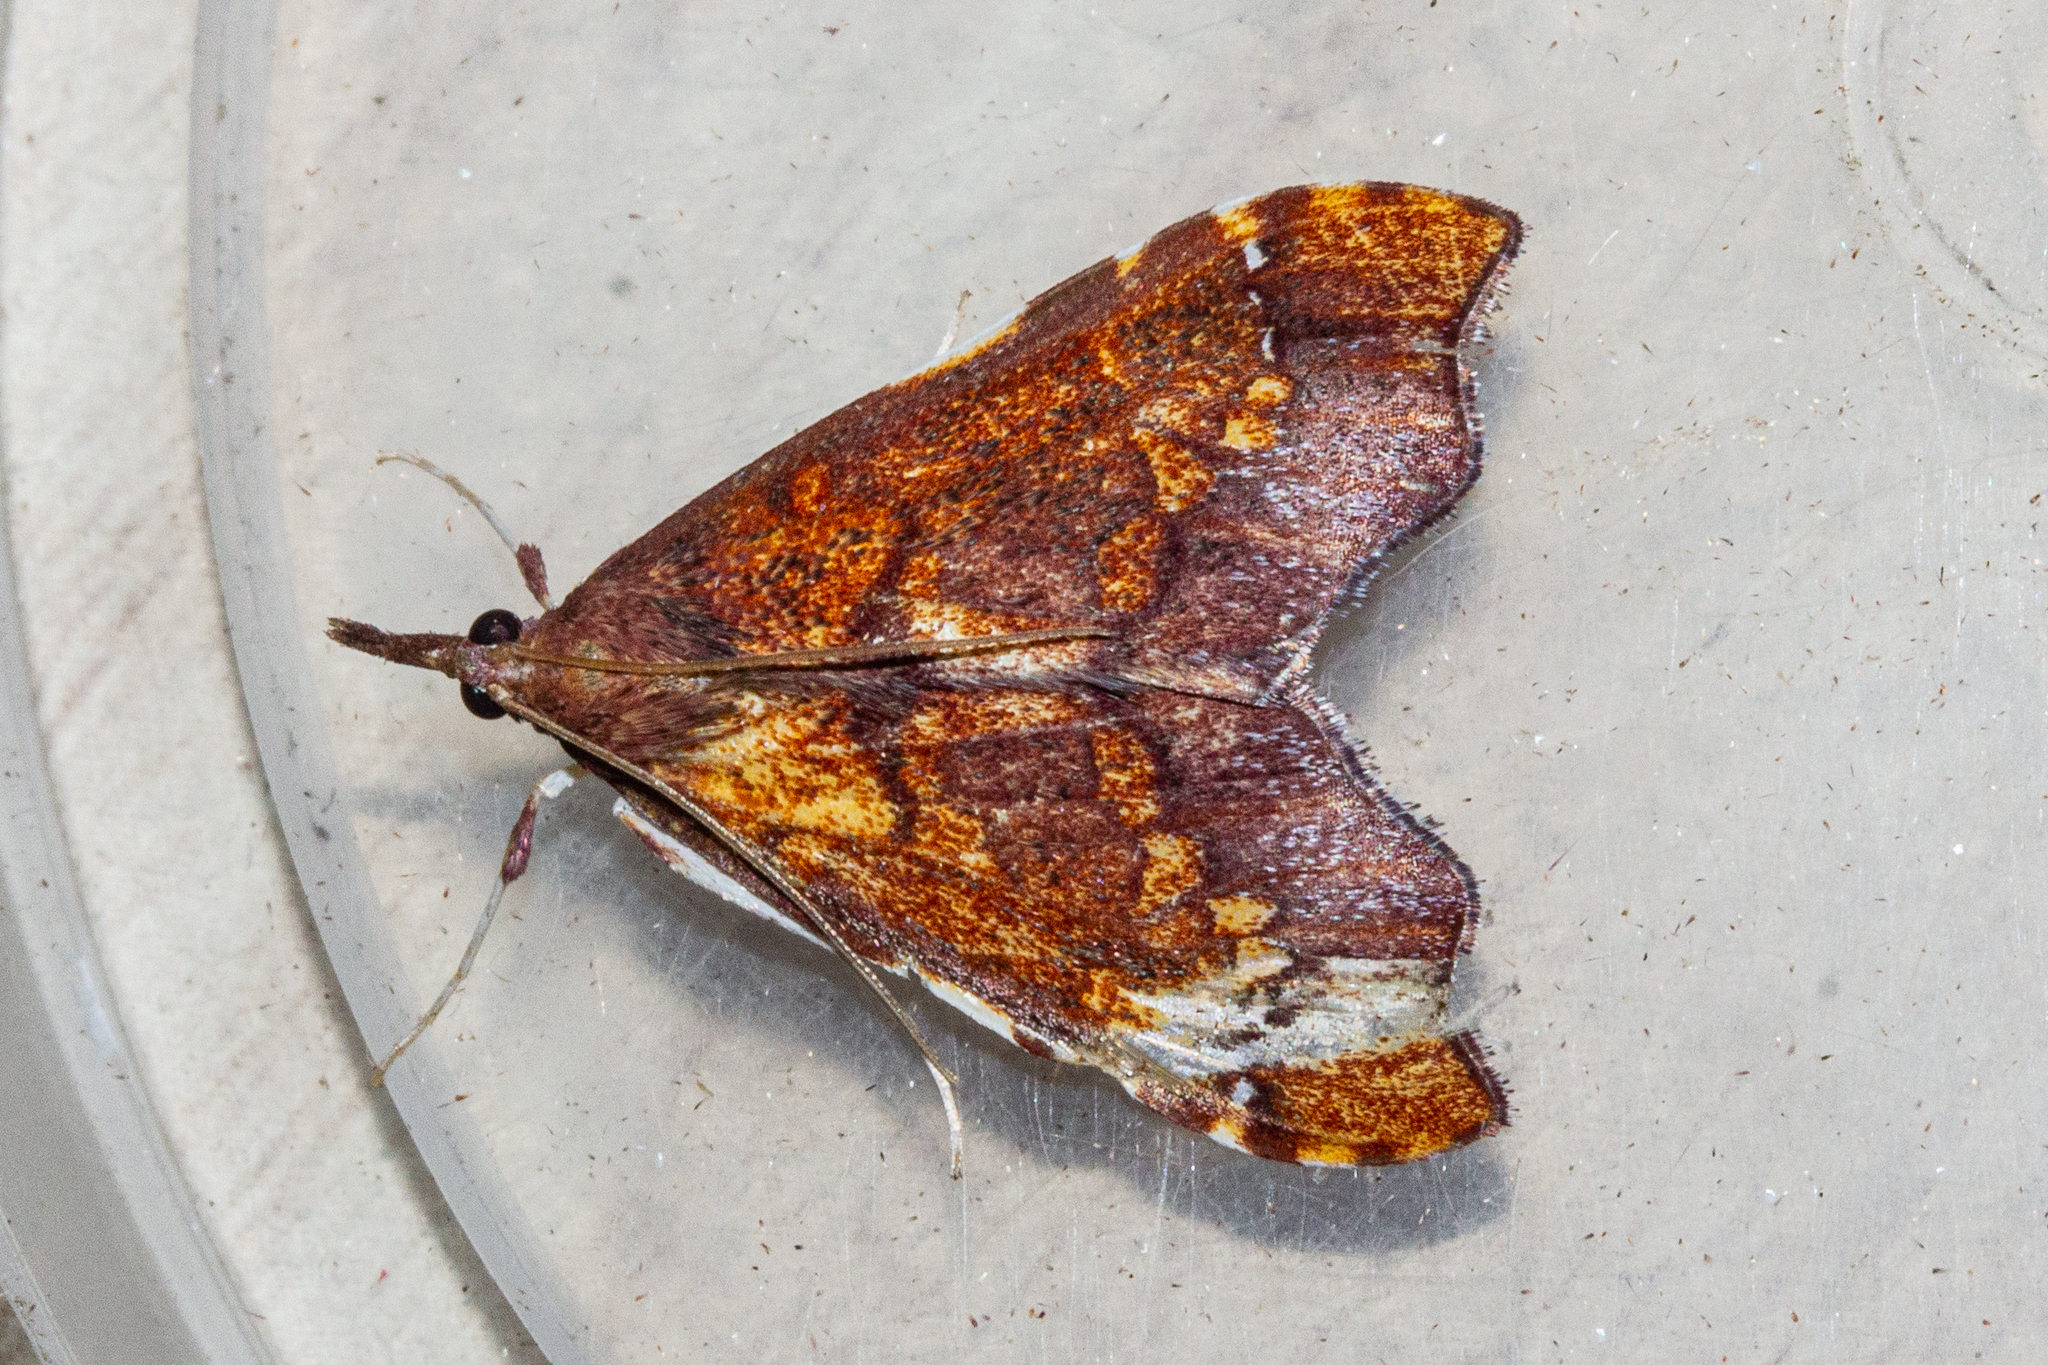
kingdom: Animalia
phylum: Arthropoda
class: Insecta
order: Lepidoptera
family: Crambidae
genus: Deana
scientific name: Deana hybreasalis
